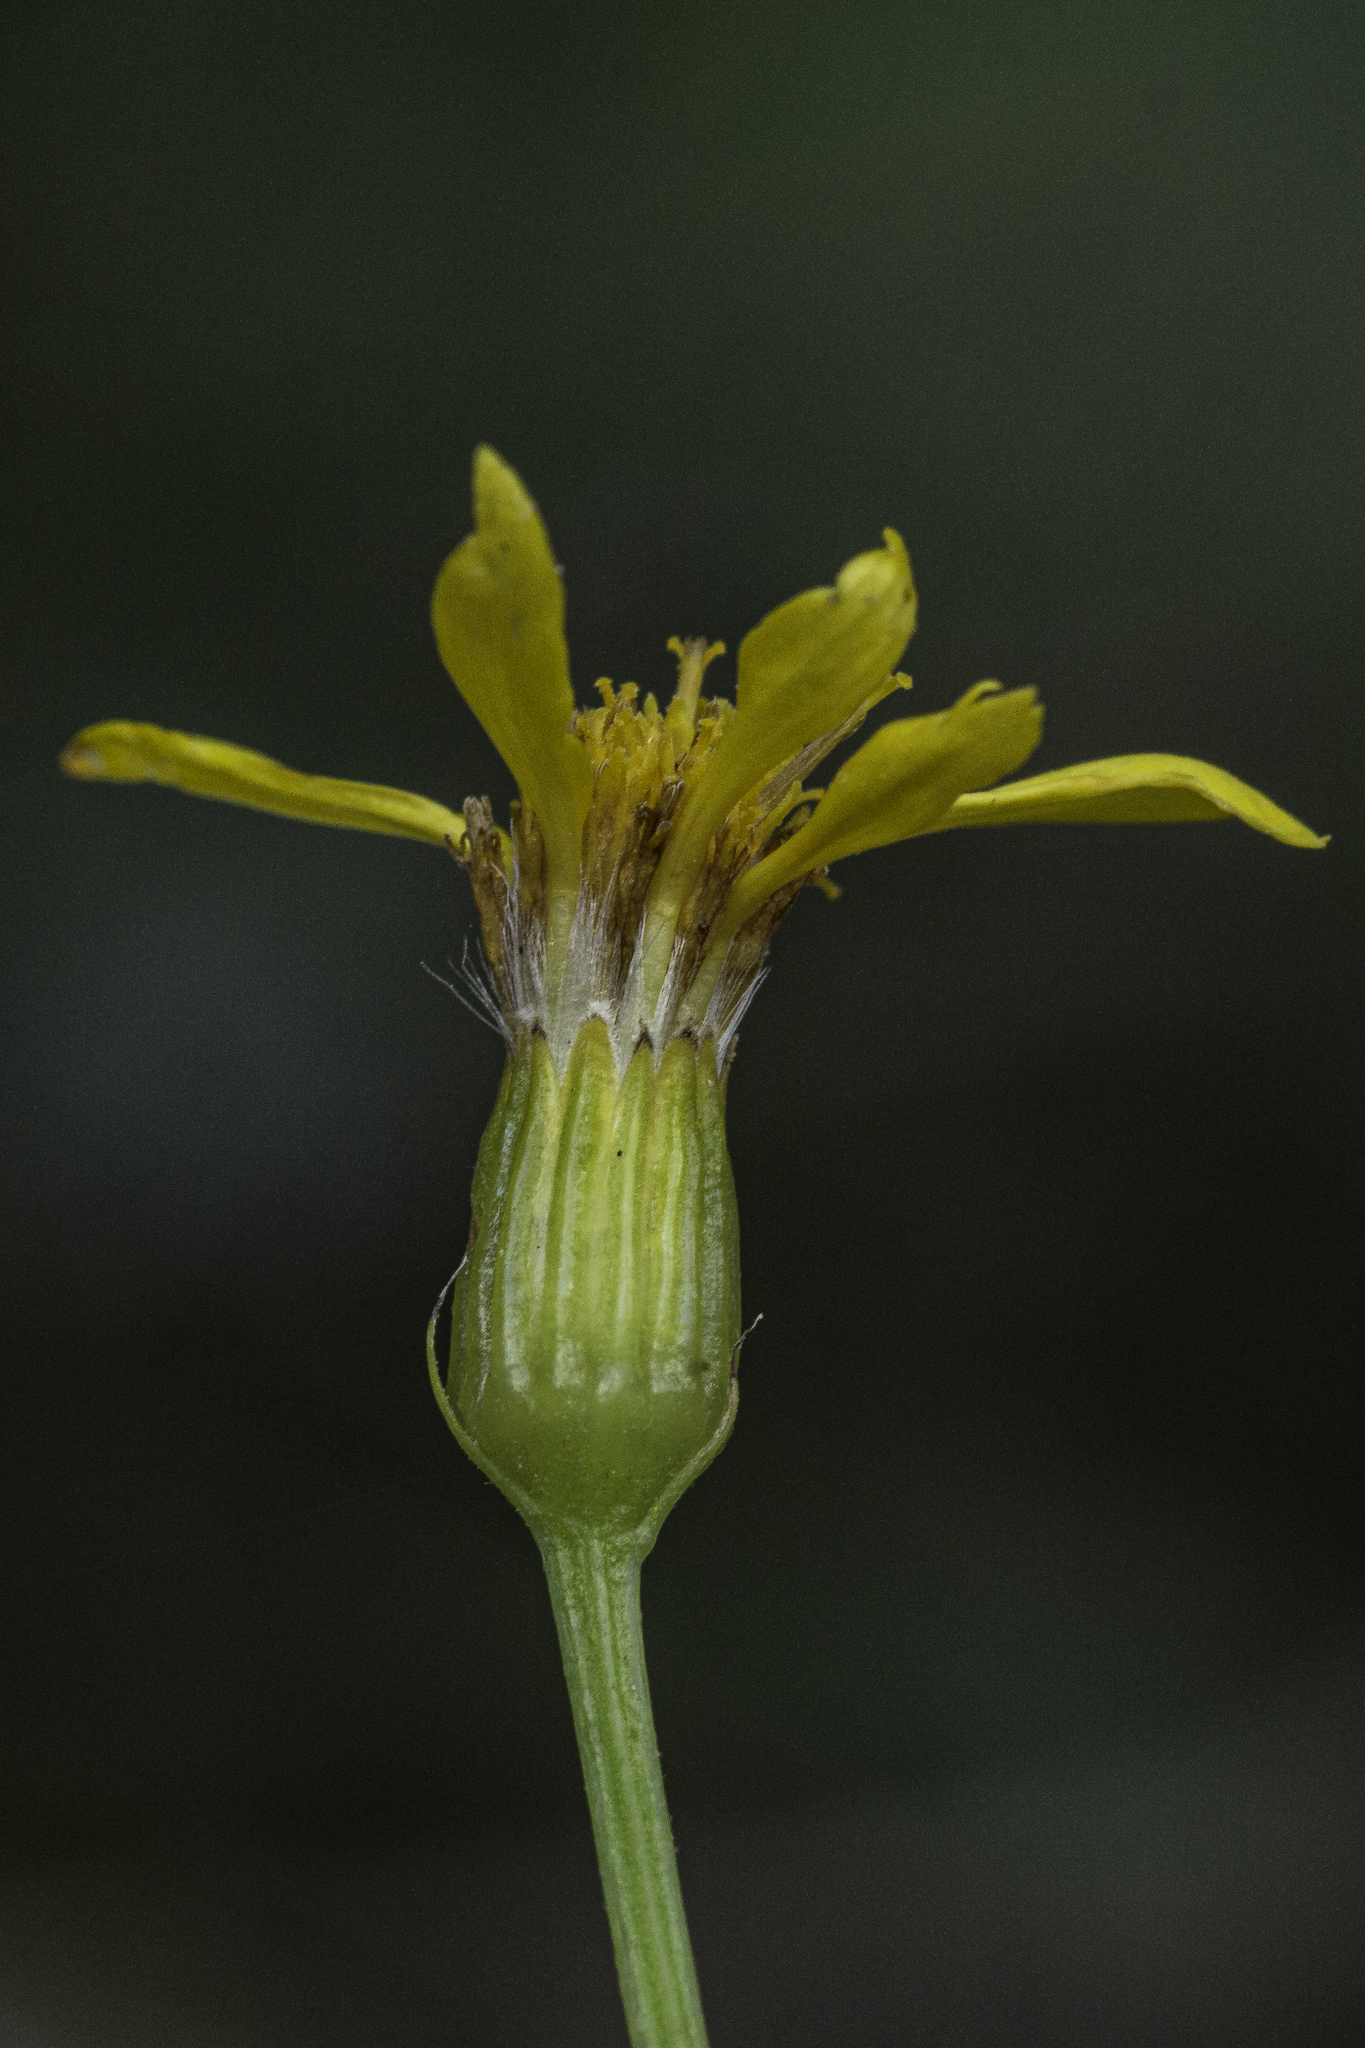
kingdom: Plantae
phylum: Tracheophyta
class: Magnoliopsida
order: Asterales
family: Asteraceae
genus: Senecio
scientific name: Senecio triangularis
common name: Arrowleaf butterweed
